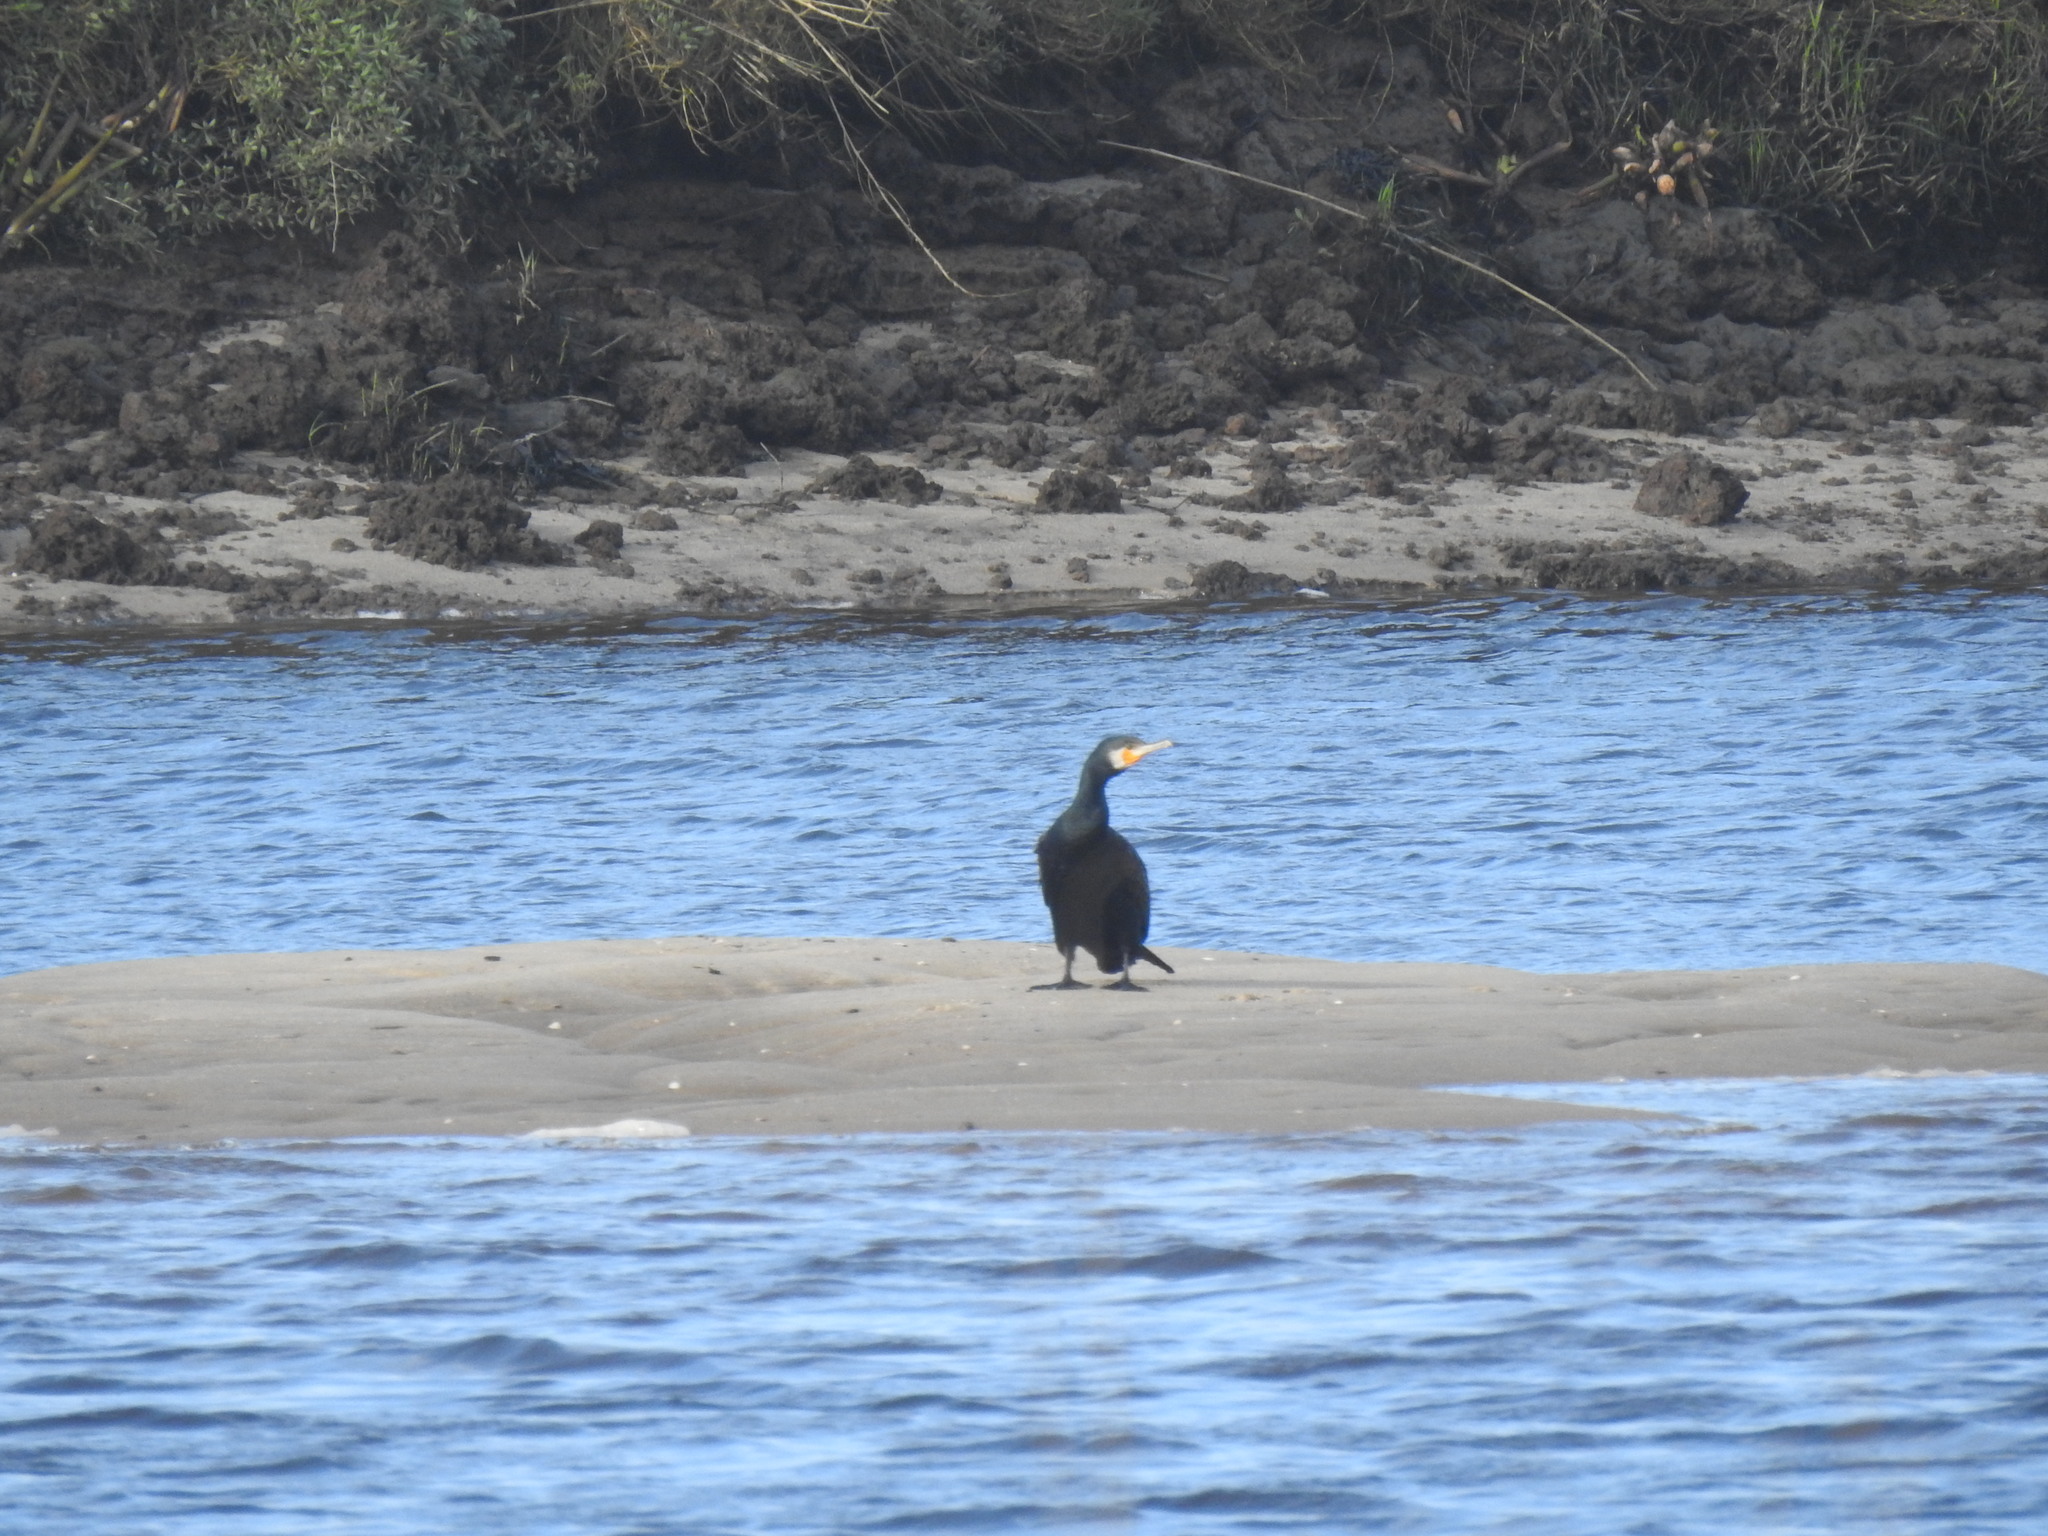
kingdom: Animalia
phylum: Chordata
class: Aves
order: Suliformes
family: Phalacrocoracidae
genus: Phalacrocorax
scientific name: Phalacrocorax carbo
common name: Great cormorant
